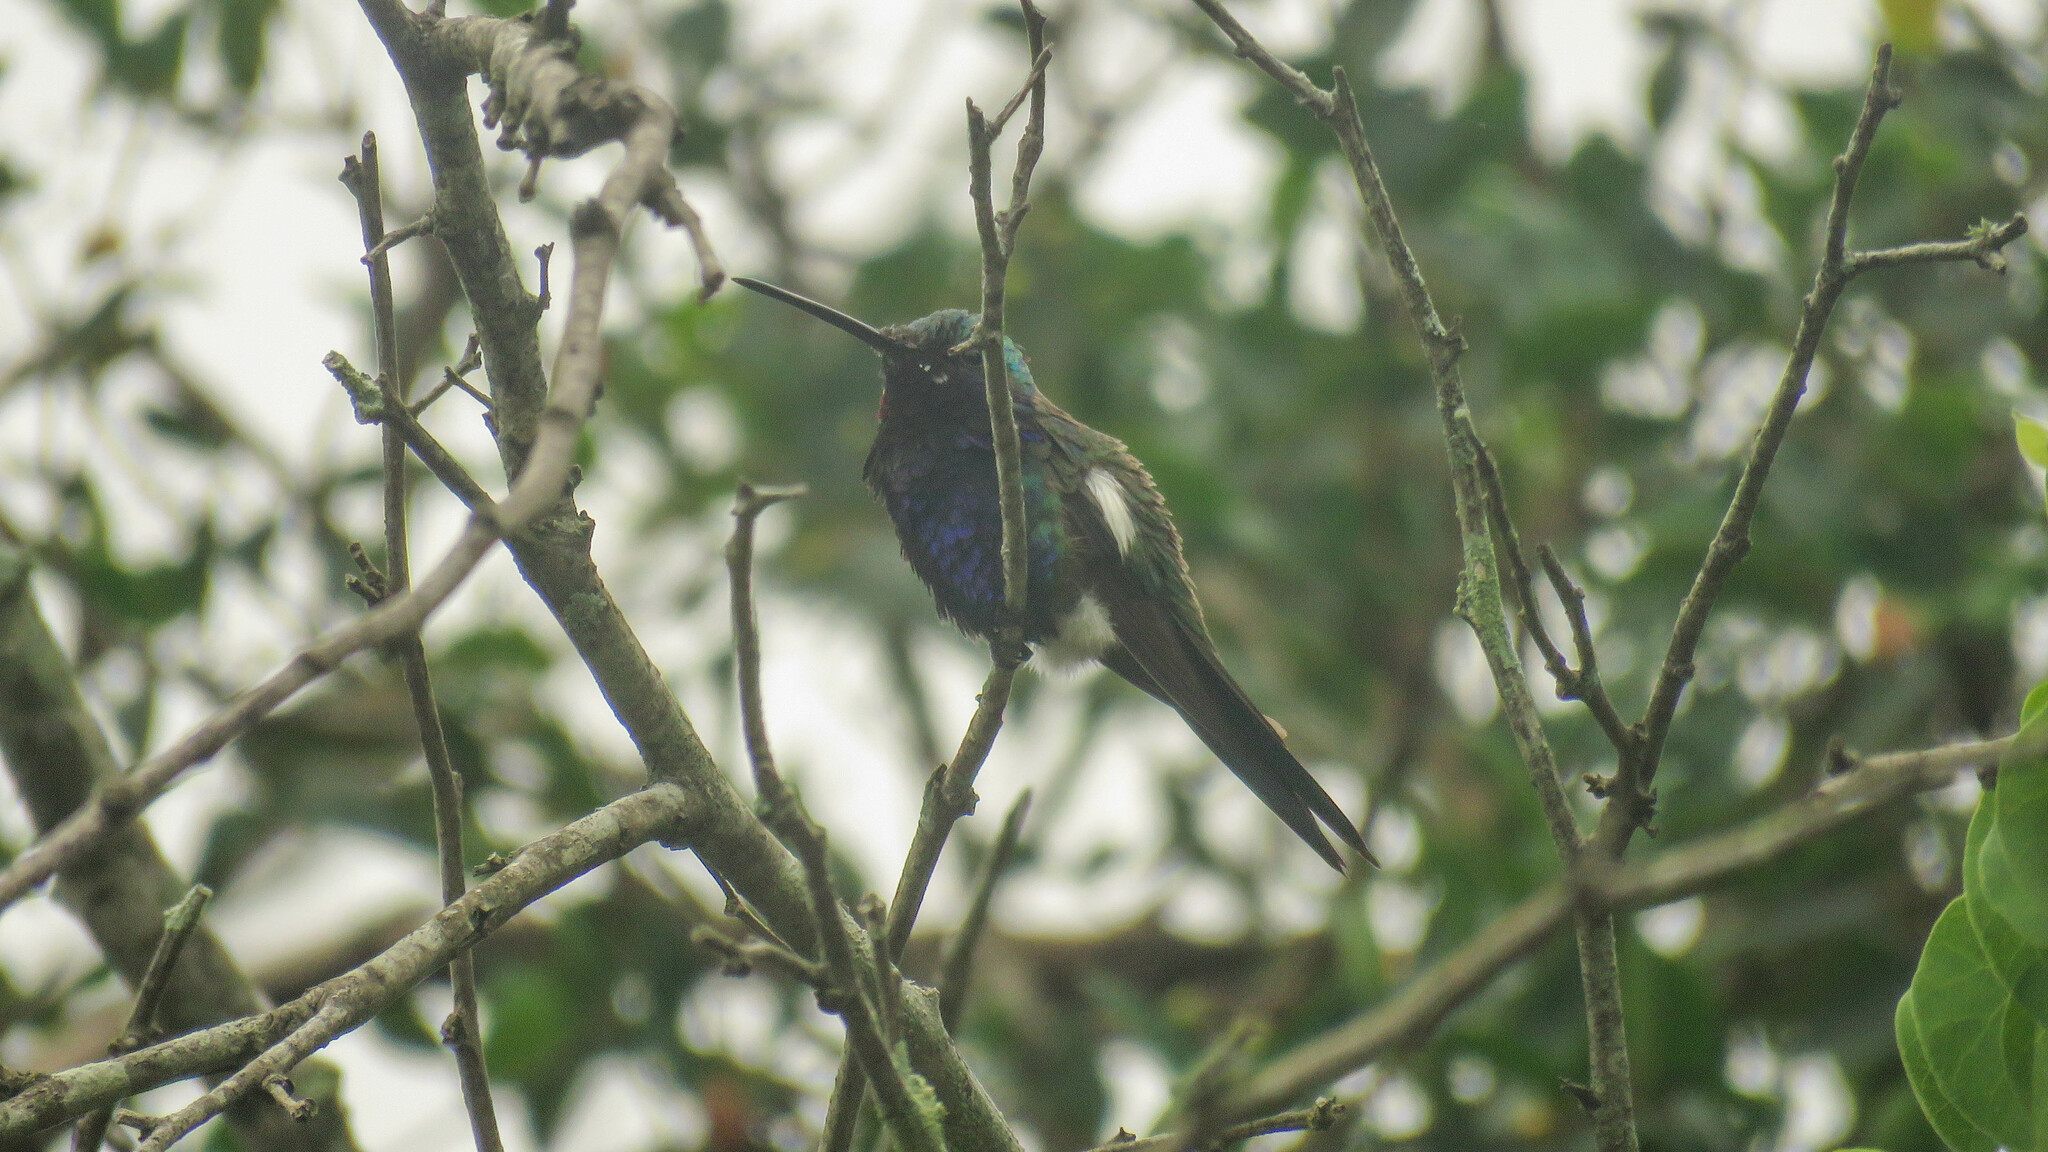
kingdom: Animalia
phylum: Chordata
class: Aves
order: Apodiformes
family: Trochilidae
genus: Heliomaster
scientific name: Heliomaster furcifer
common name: Blue-tufted starthroat
